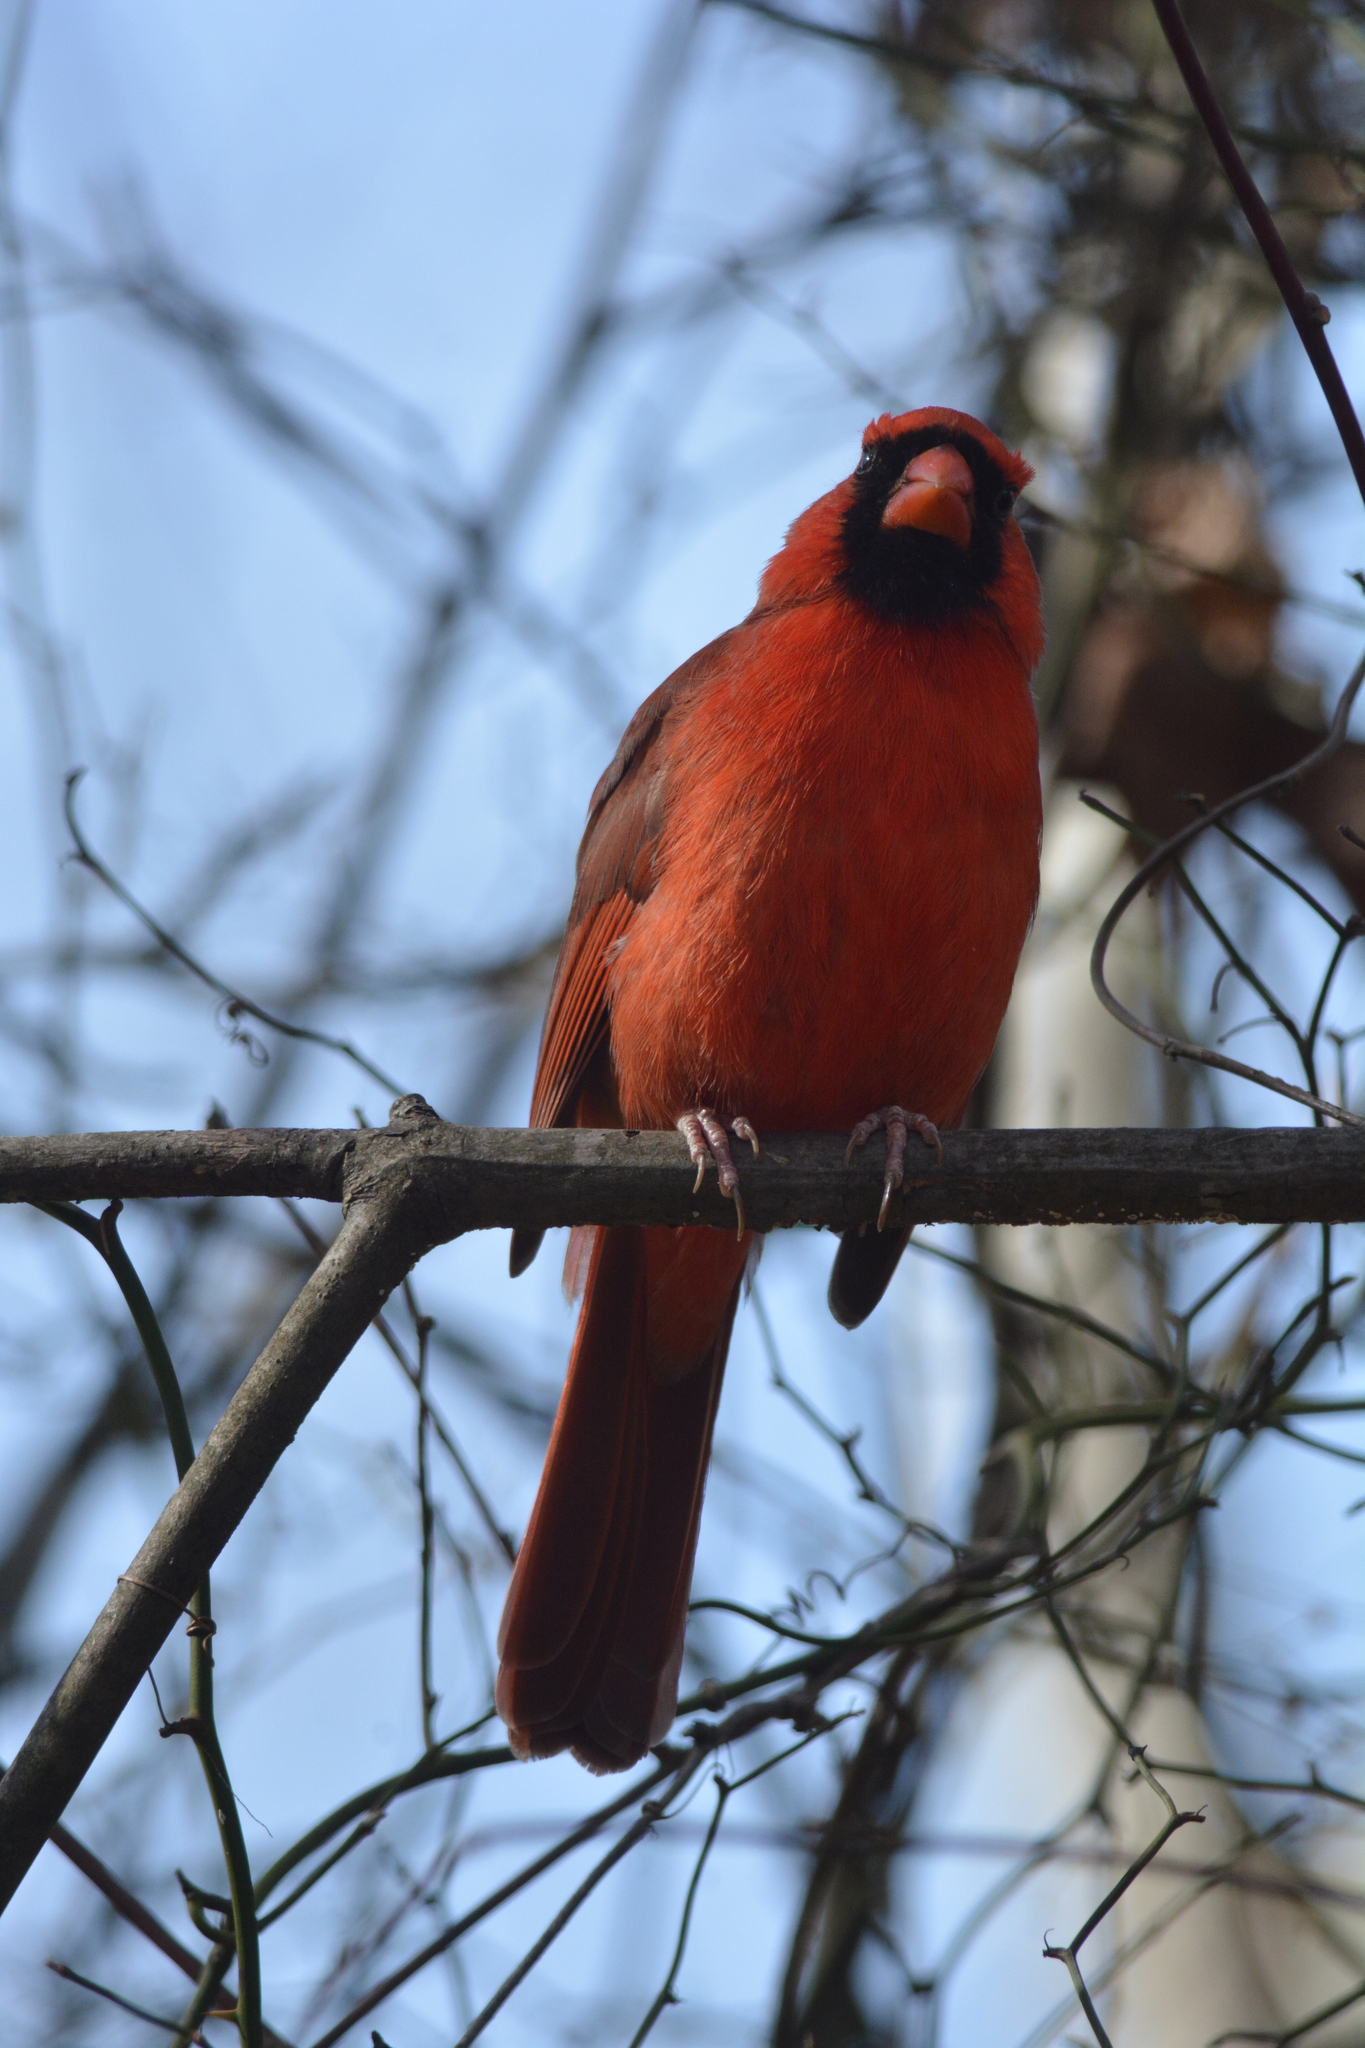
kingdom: Animalia
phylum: Chordata
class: Aves
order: Passeriformes
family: Cardinalidae
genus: Cardinalis
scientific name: Cardinalis cardinalis
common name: Northern cardinal
